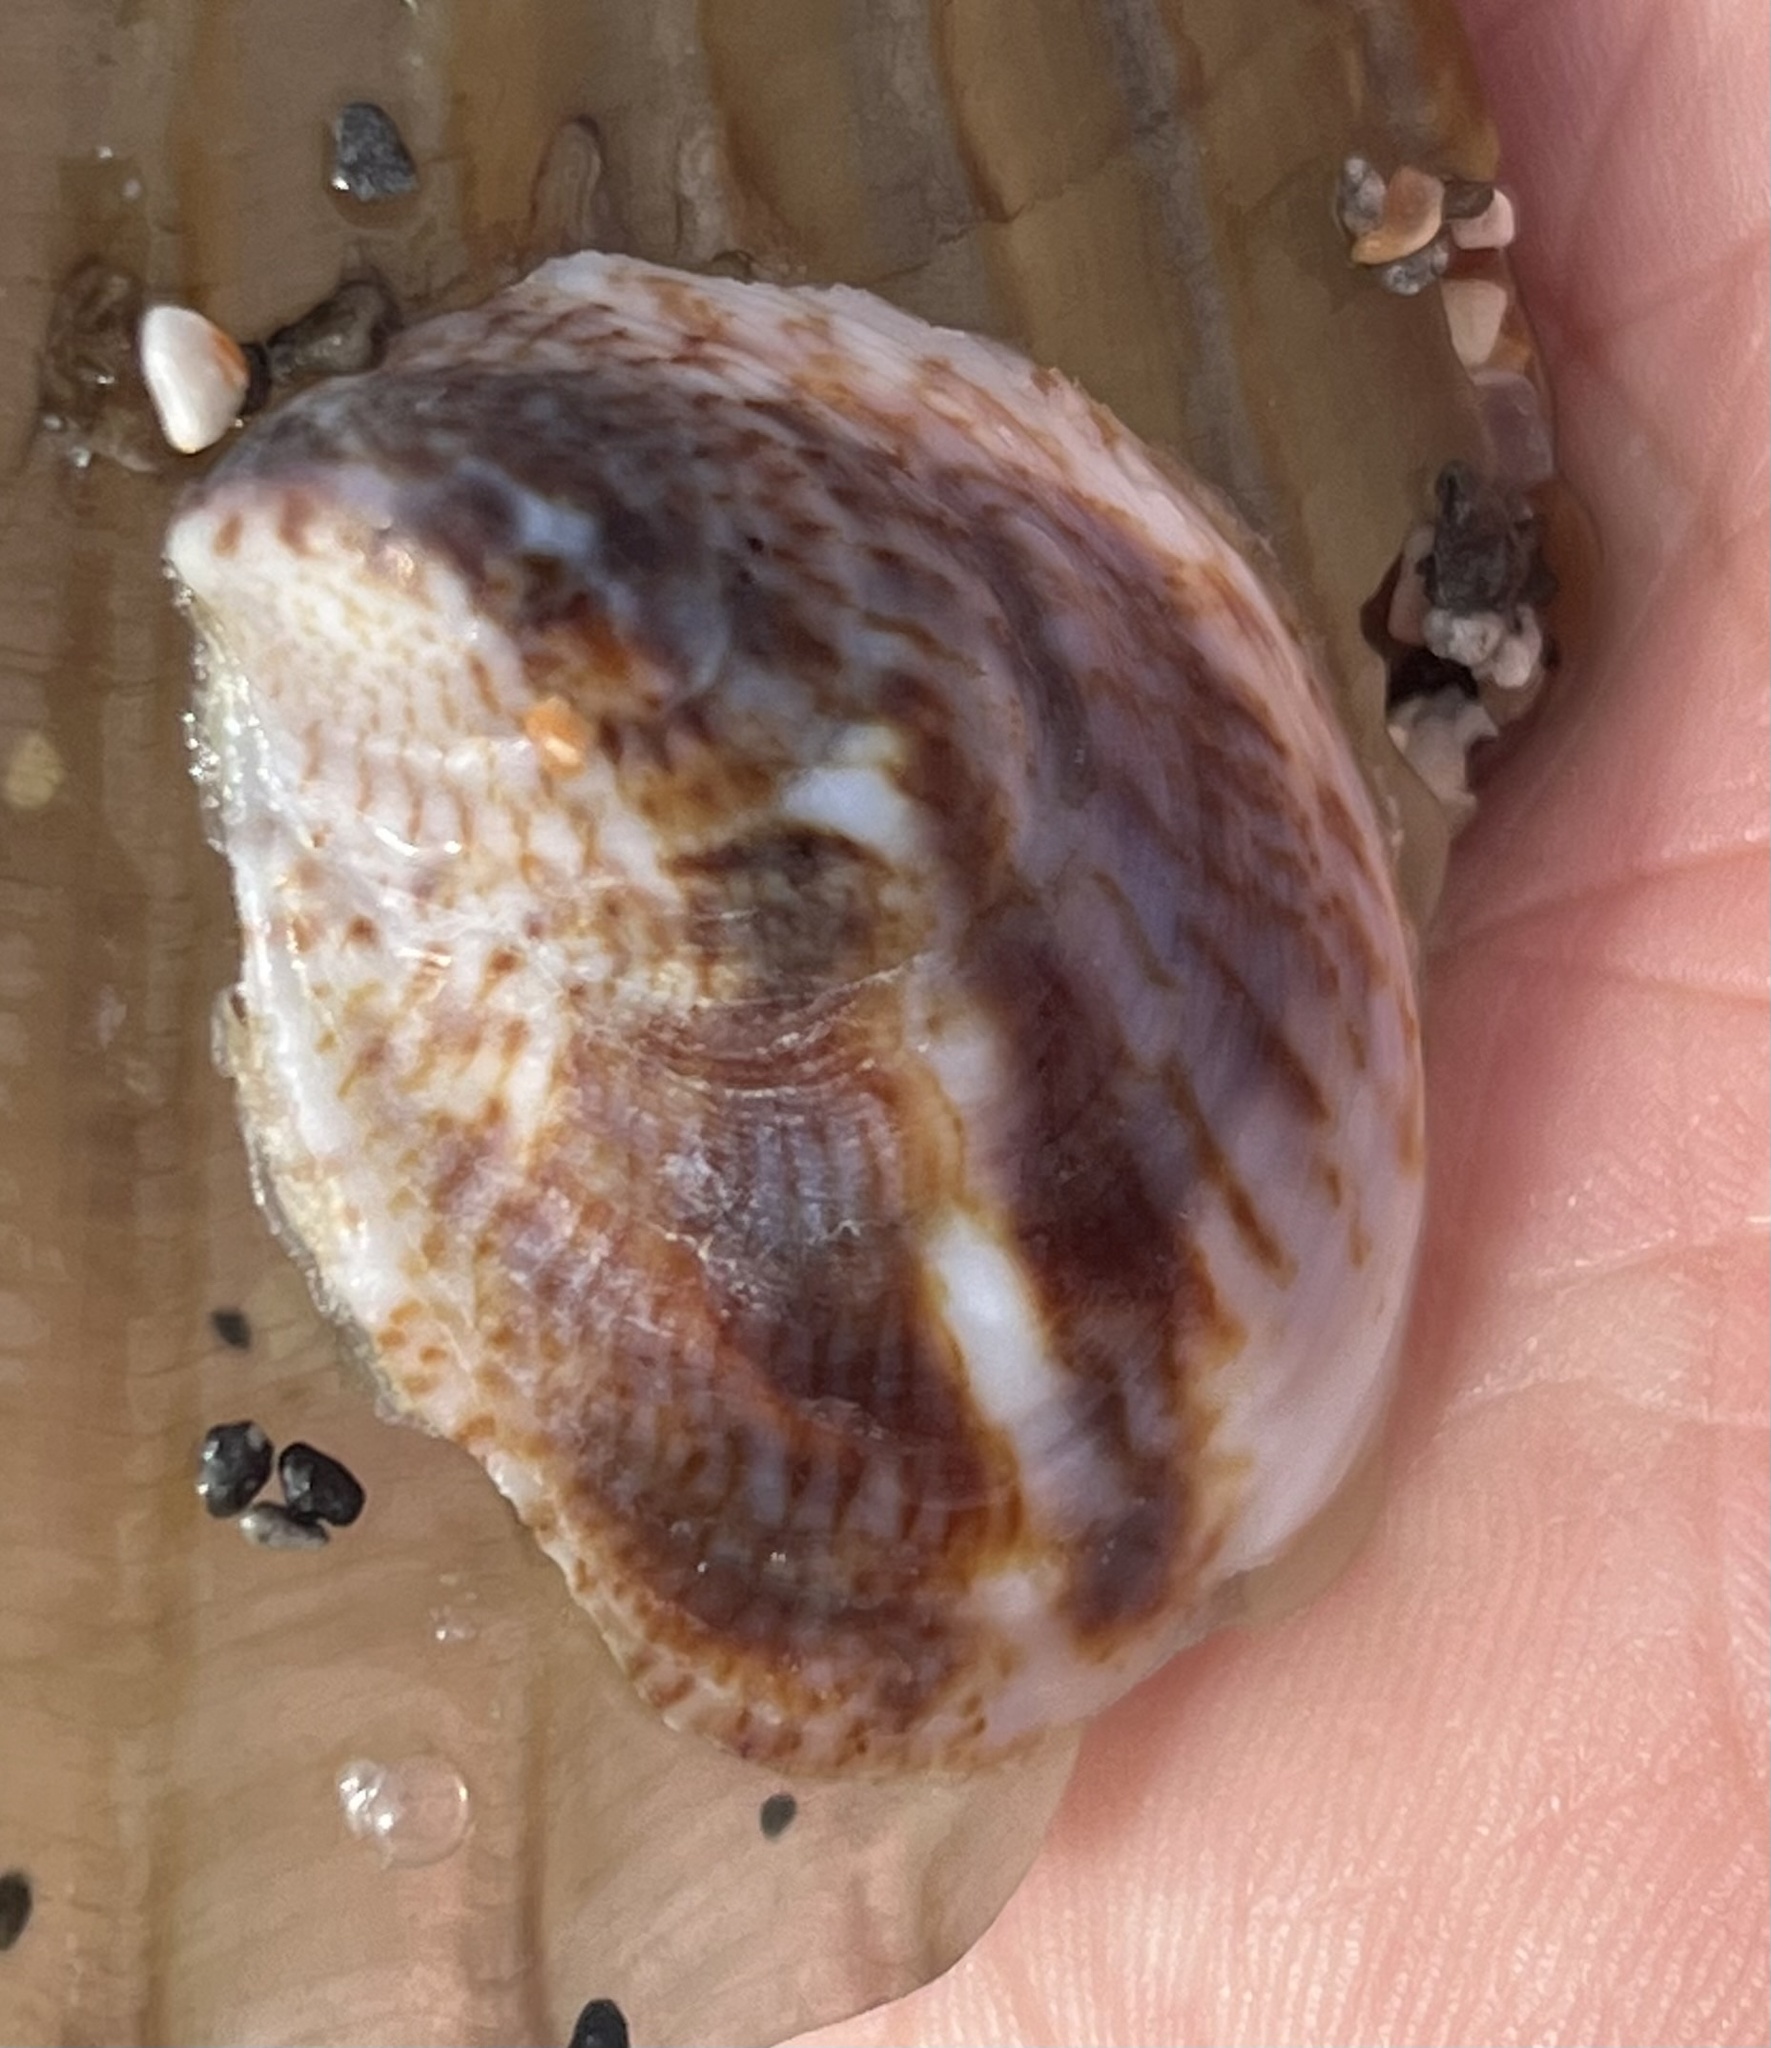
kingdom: Animalia
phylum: Mollusca
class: Gastropoda
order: Littorinimorpha
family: Calyptraeidae
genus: Crepidula
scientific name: Crepidula fornicata
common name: Slipper limpet
